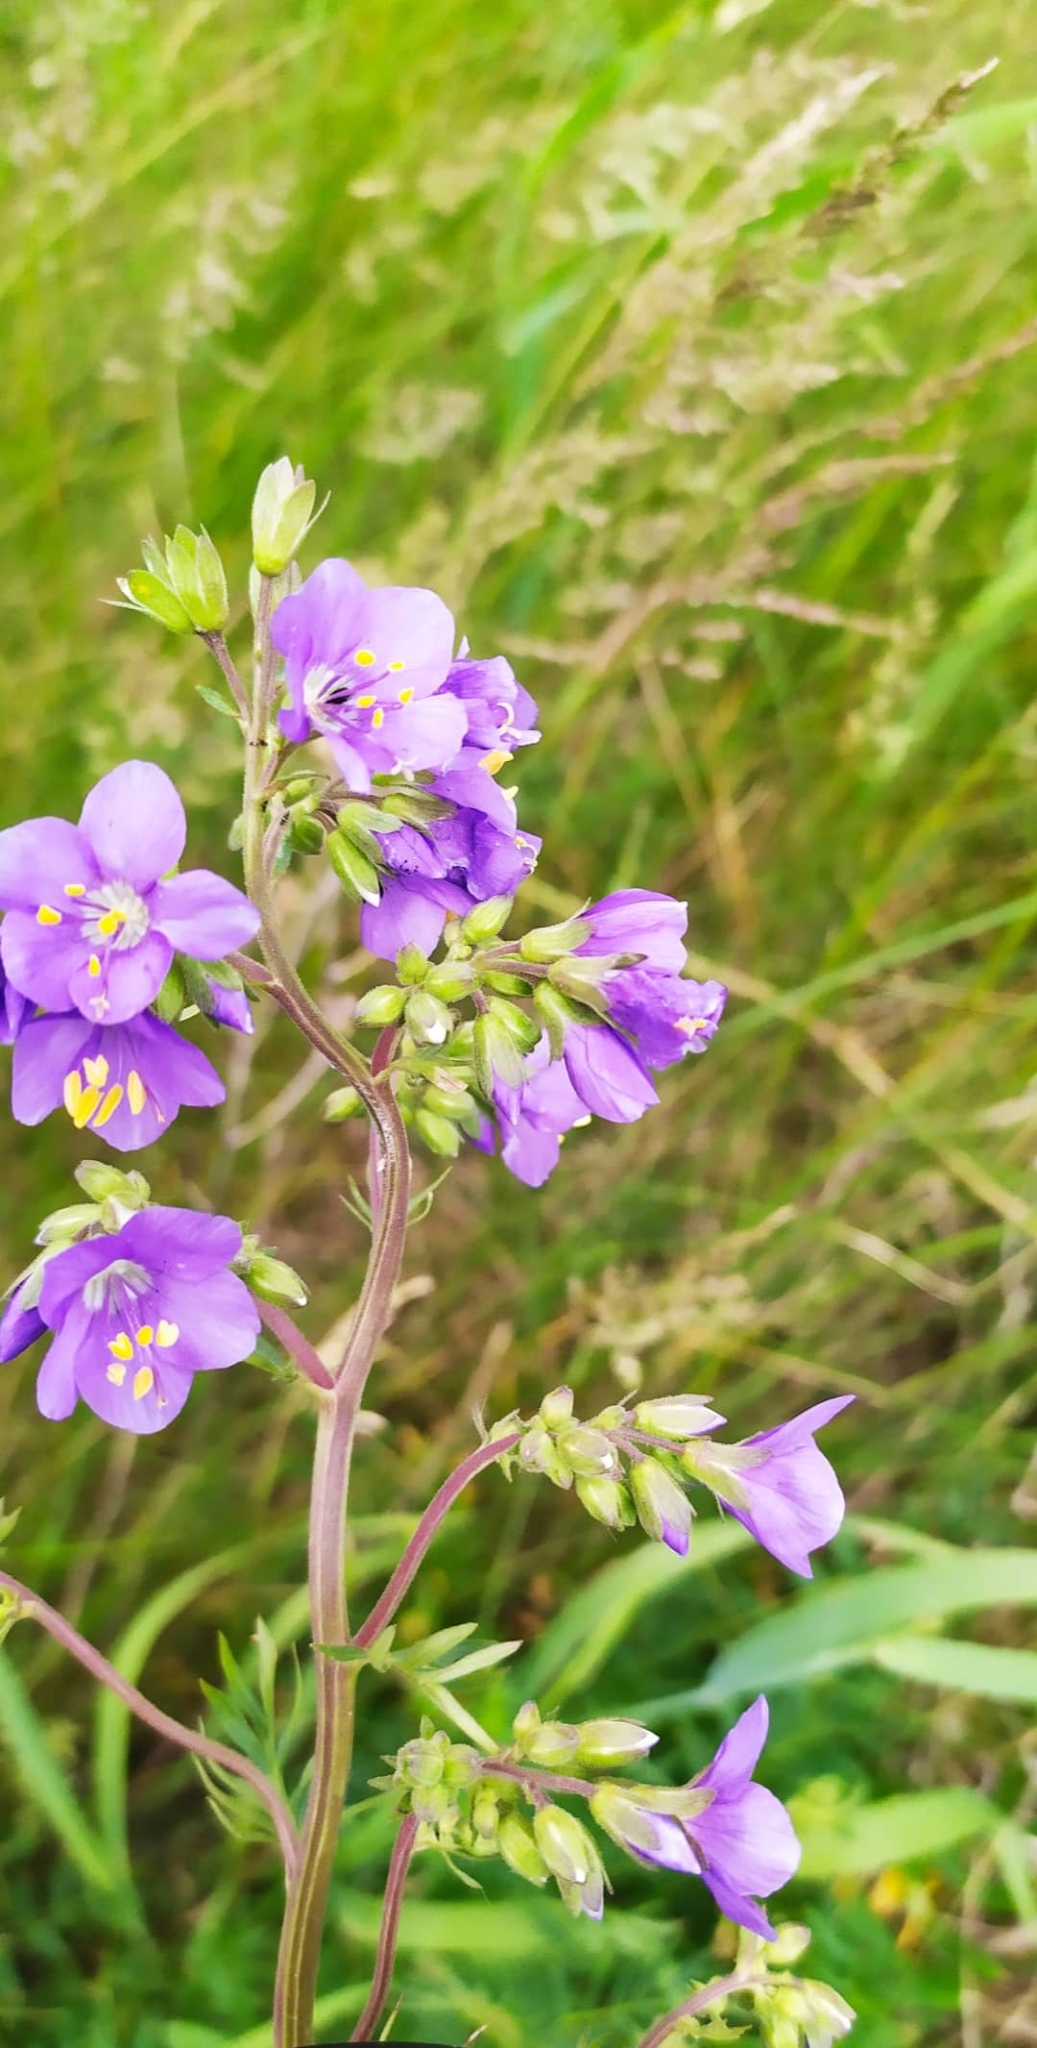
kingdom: Plantae
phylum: Tracheophyta
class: Magnoliopsida
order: Ericales
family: Polemoniaceae
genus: Polemonium
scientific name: Polemonium caeruleum
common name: Jacob's-ladder
